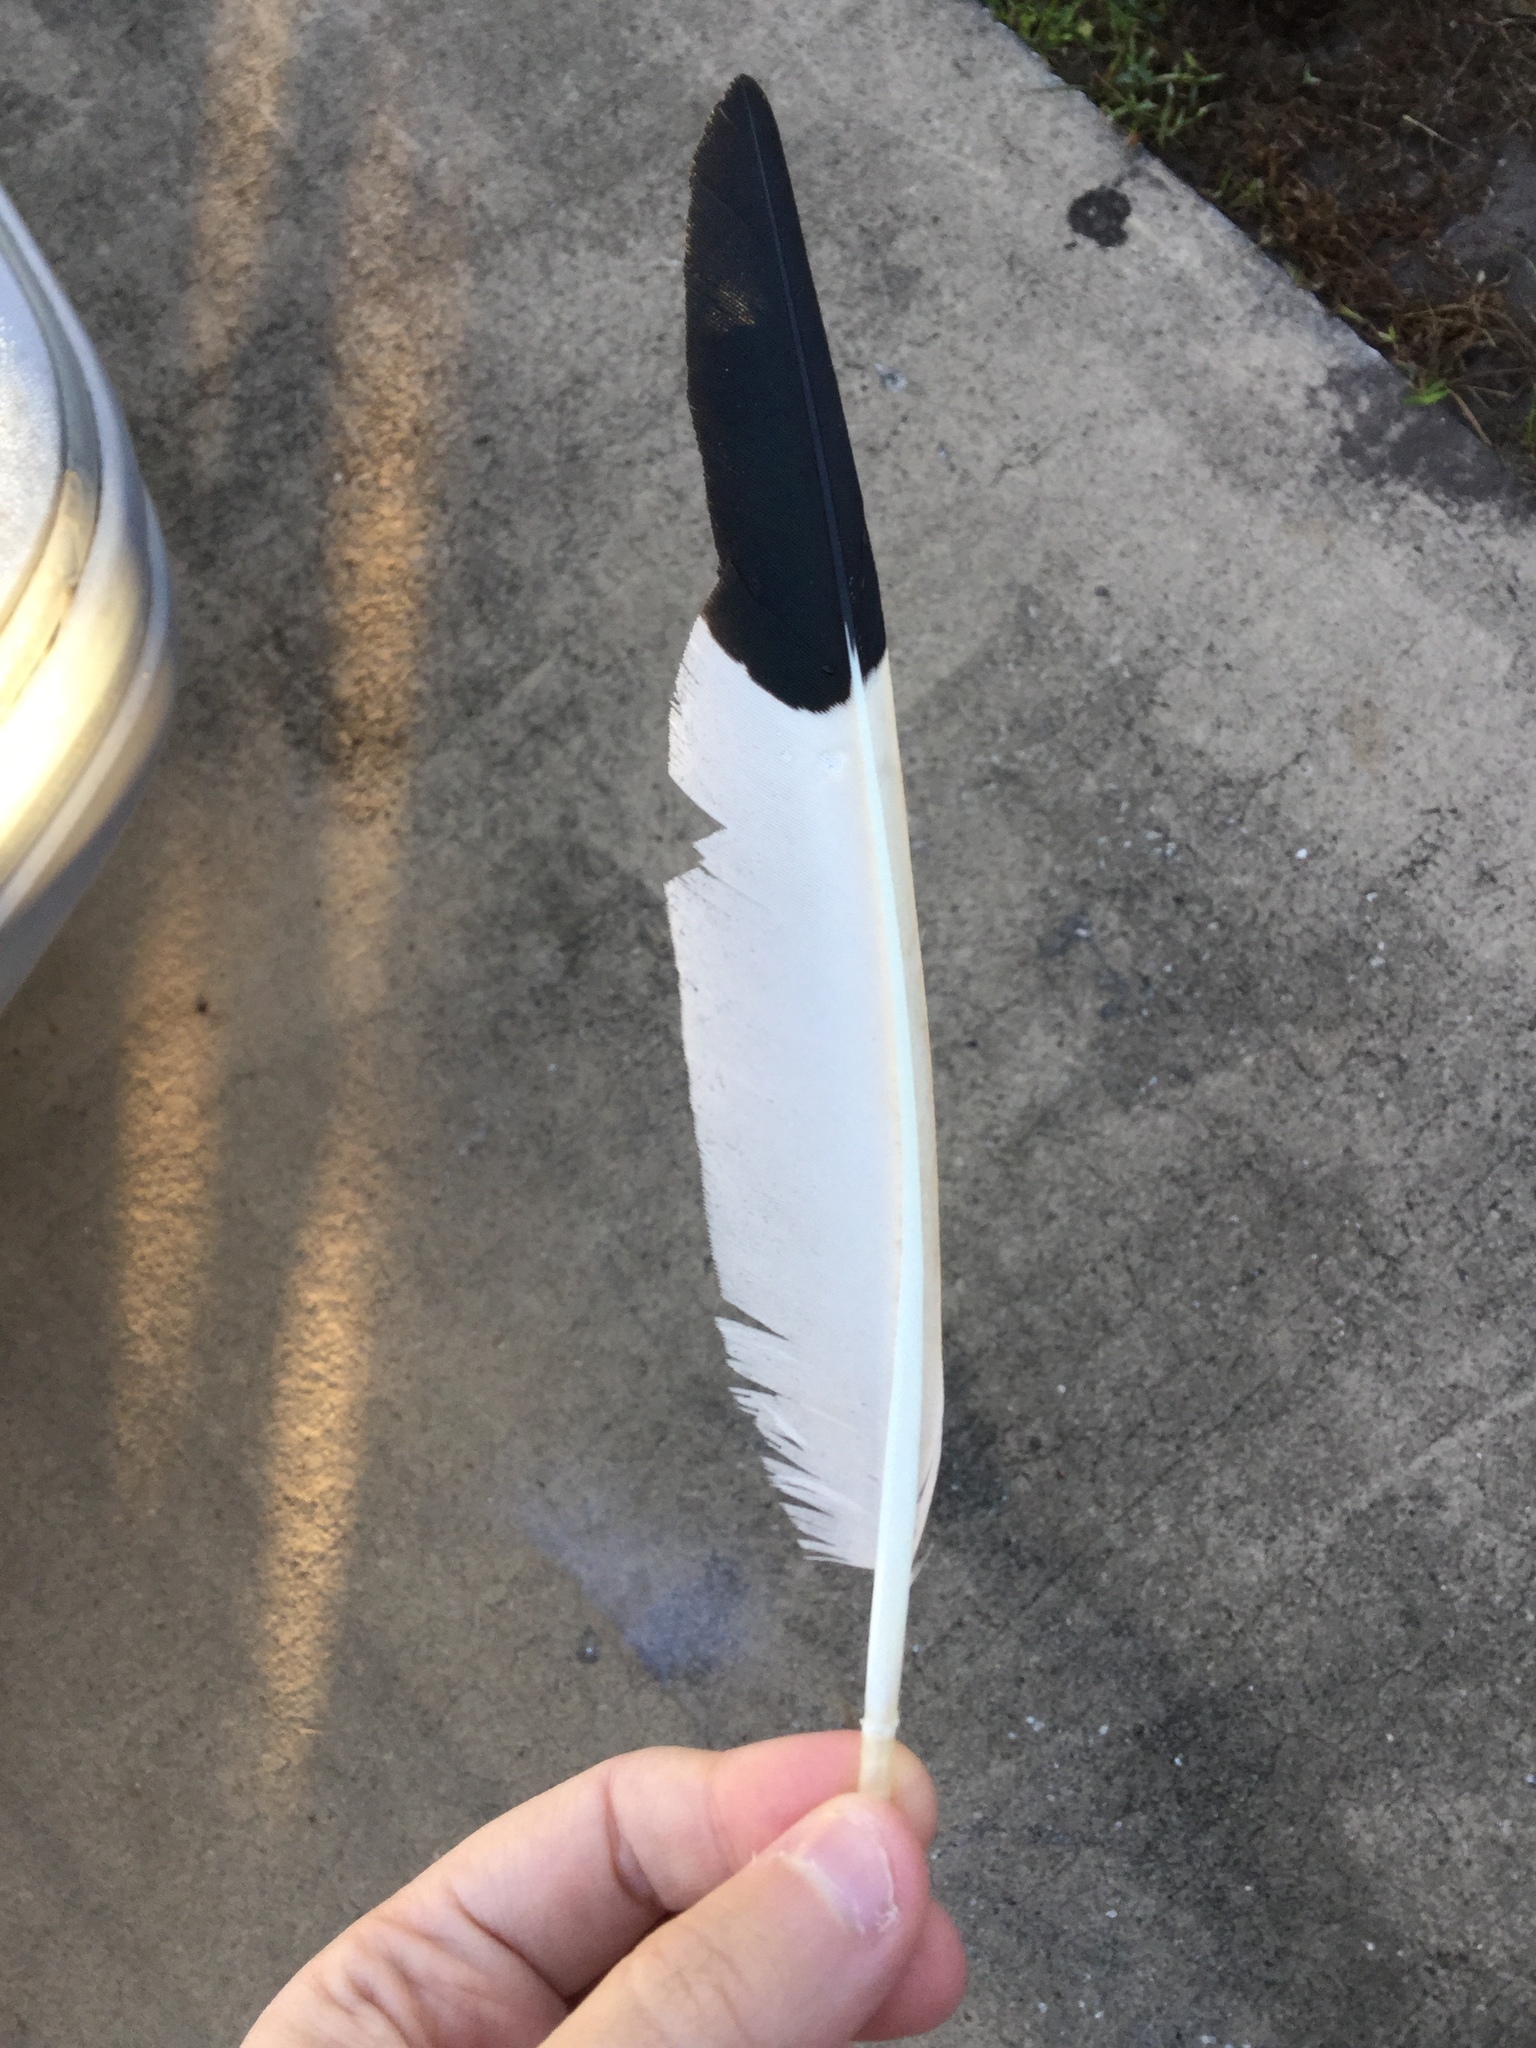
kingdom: Animalia
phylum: Chordata
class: Aves
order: Pelecaniformes
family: Threskiornithidae
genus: Eudocimus
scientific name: Eudocimus albus
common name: White ibis
